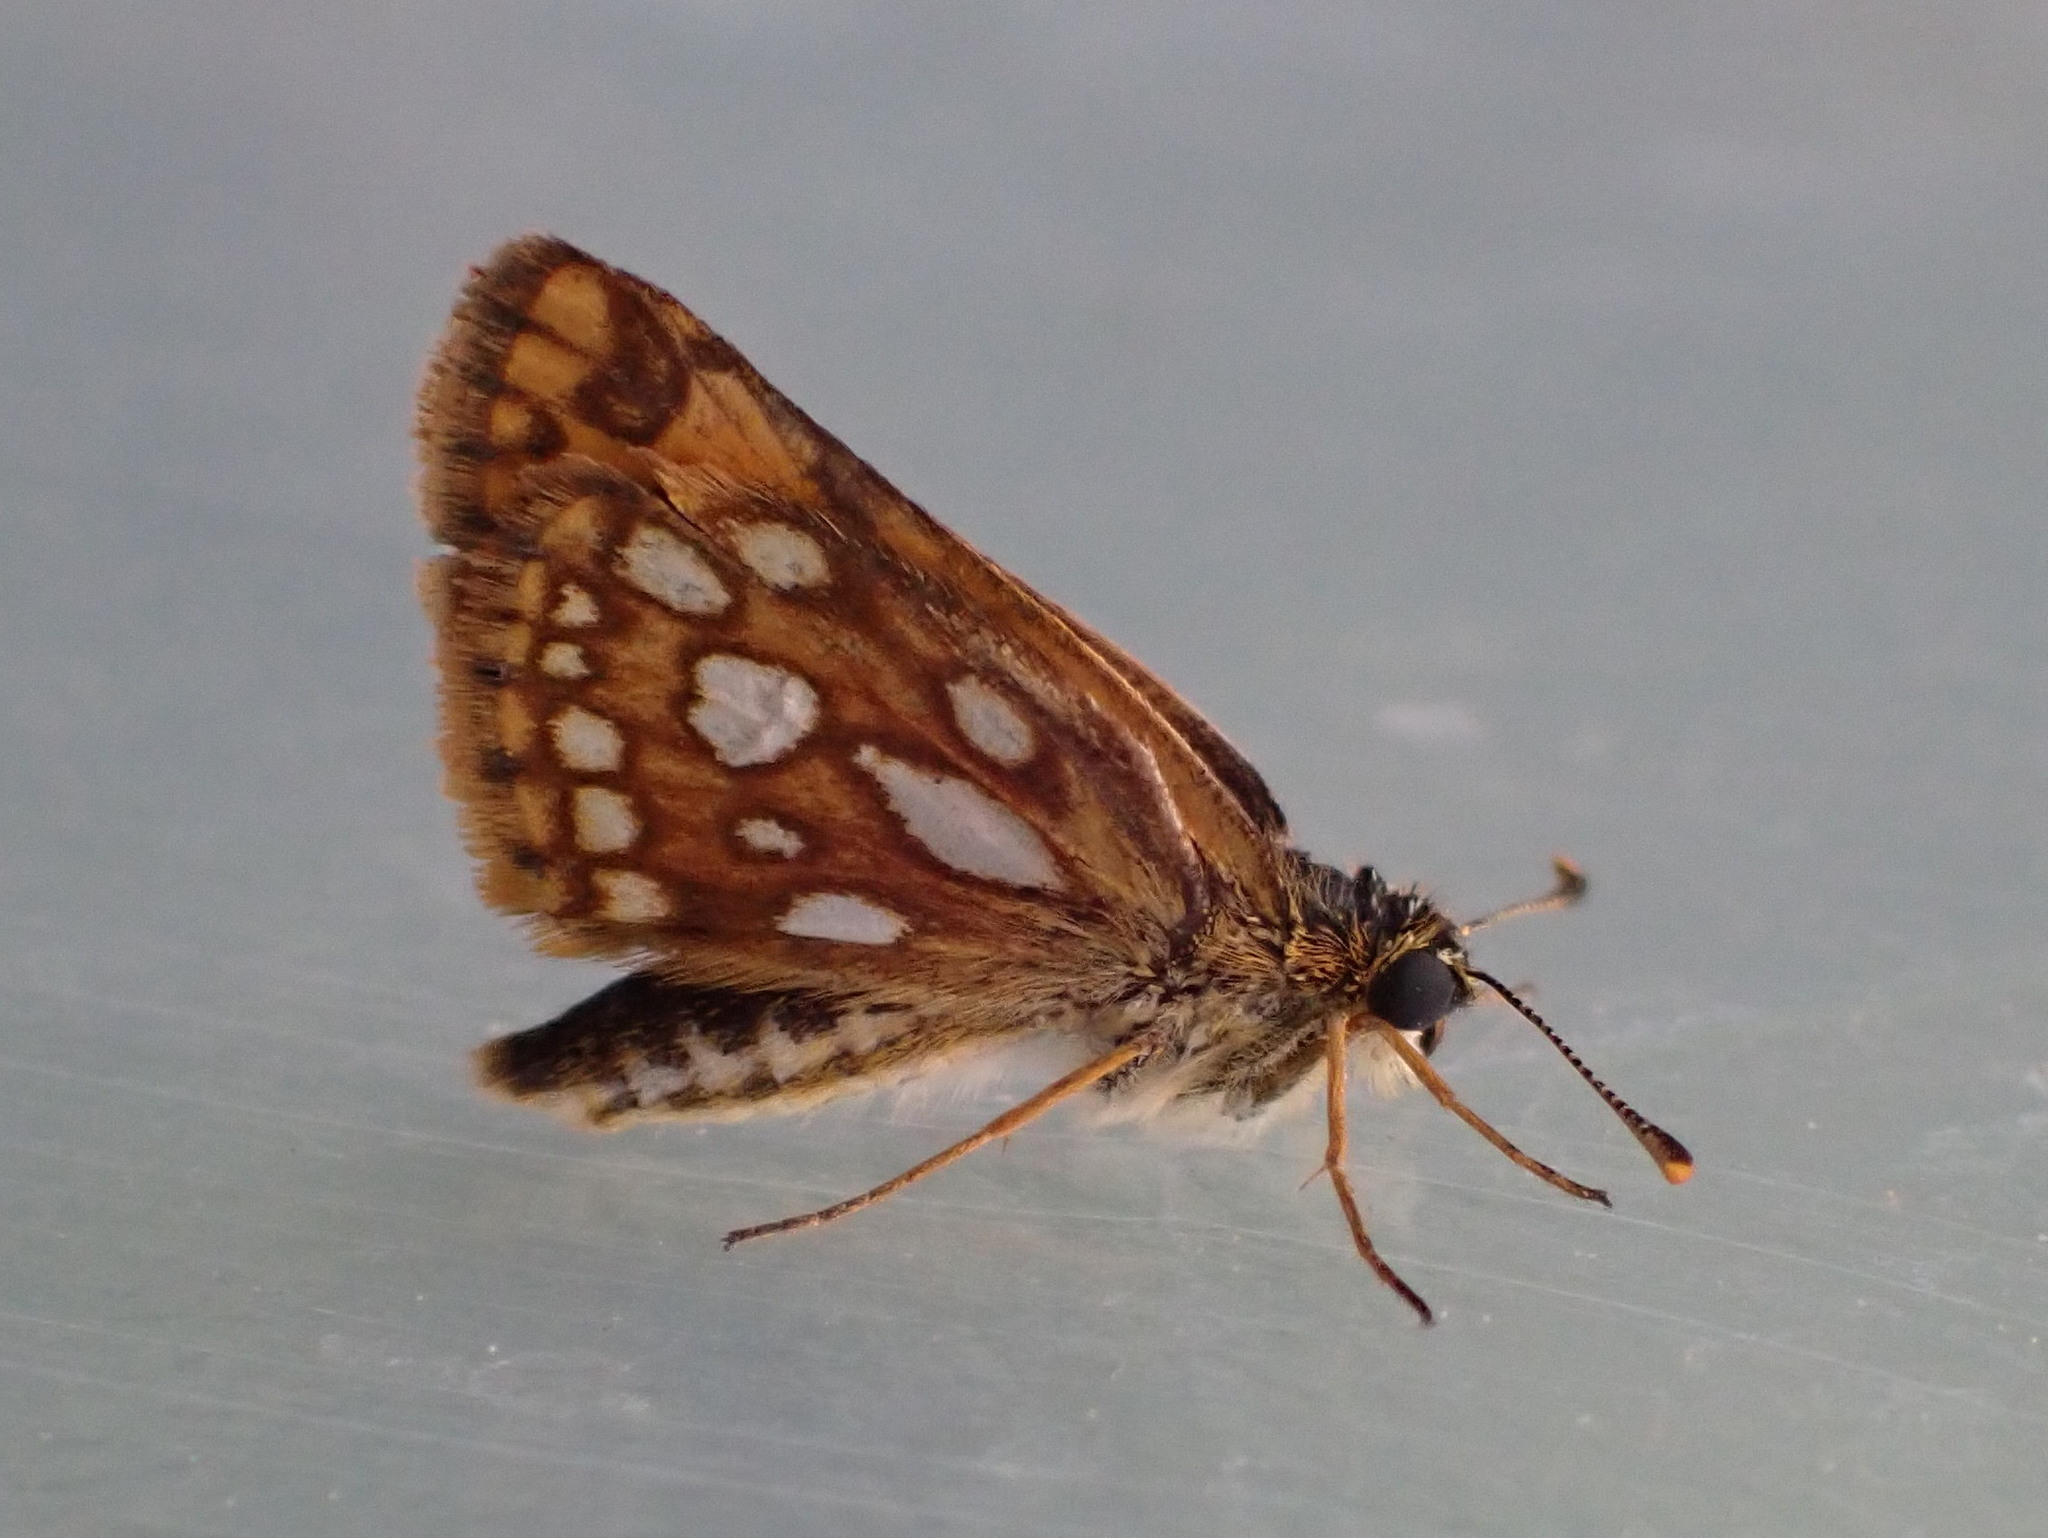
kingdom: Animalia
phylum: Arthropoda
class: Insecta
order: Lepidoptera
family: Hesperiidae
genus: Carterocephalus
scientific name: Carterocephalus mandan
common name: Arctic skipperling
